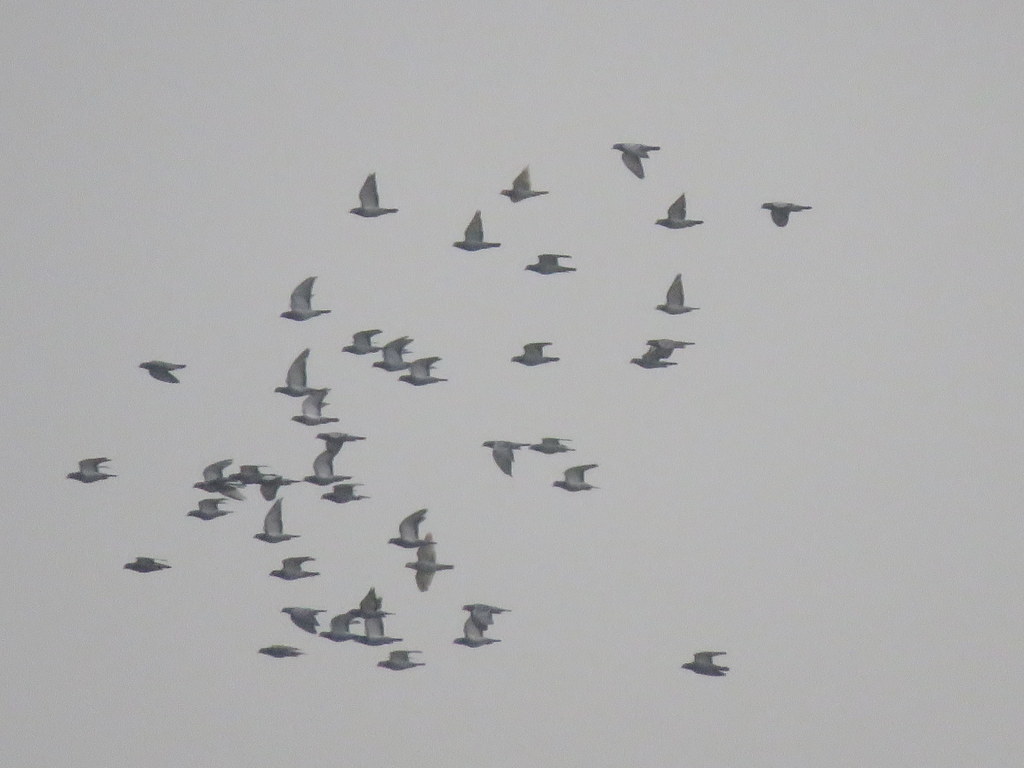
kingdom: Animalia
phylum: Chordata
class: Aves
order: Columbiformes
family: Columbidae
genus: Columba
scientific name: Columba livia
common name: Rock pigeon
